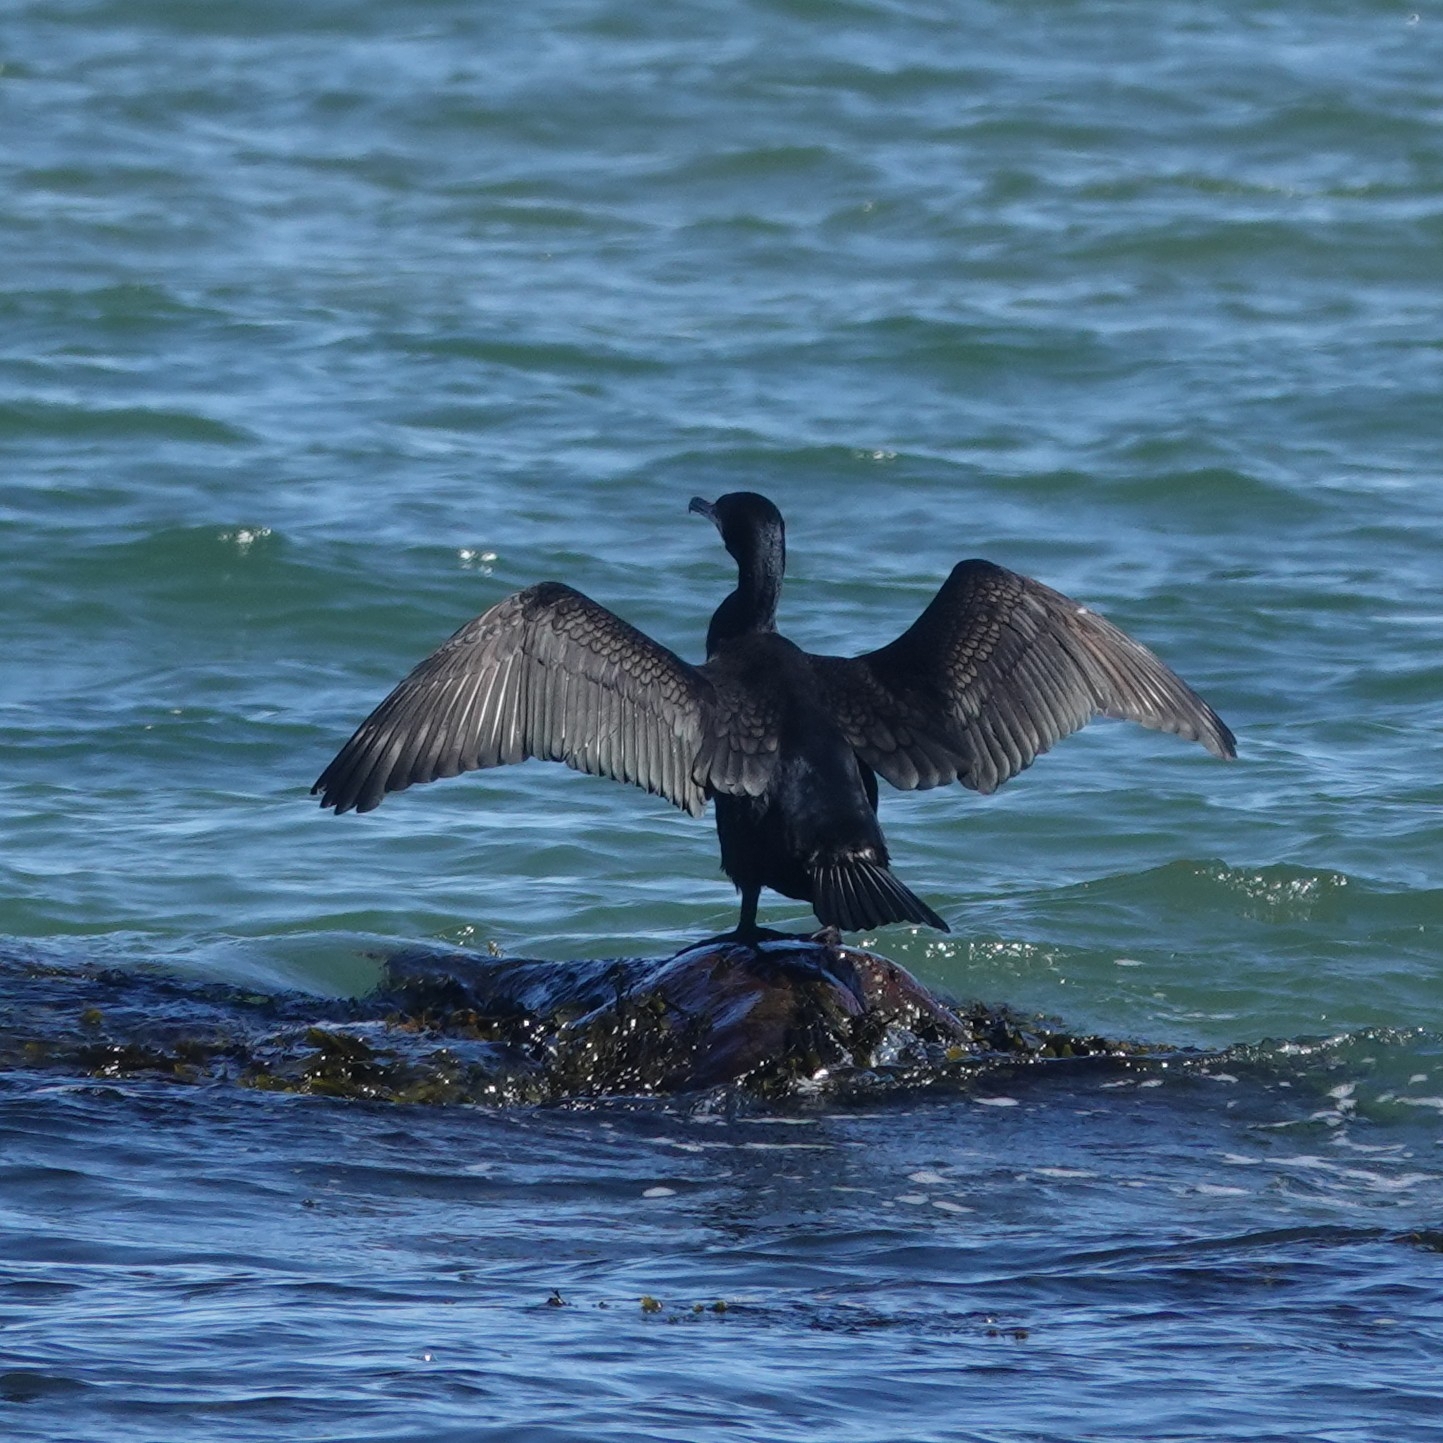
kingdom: Animalia
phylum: Chordata
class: Aves
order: Suliformes
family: Phalacrocoracidae
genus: Phalacrocorax
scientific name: Phalacrocorax carbo
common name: Great cormorant
